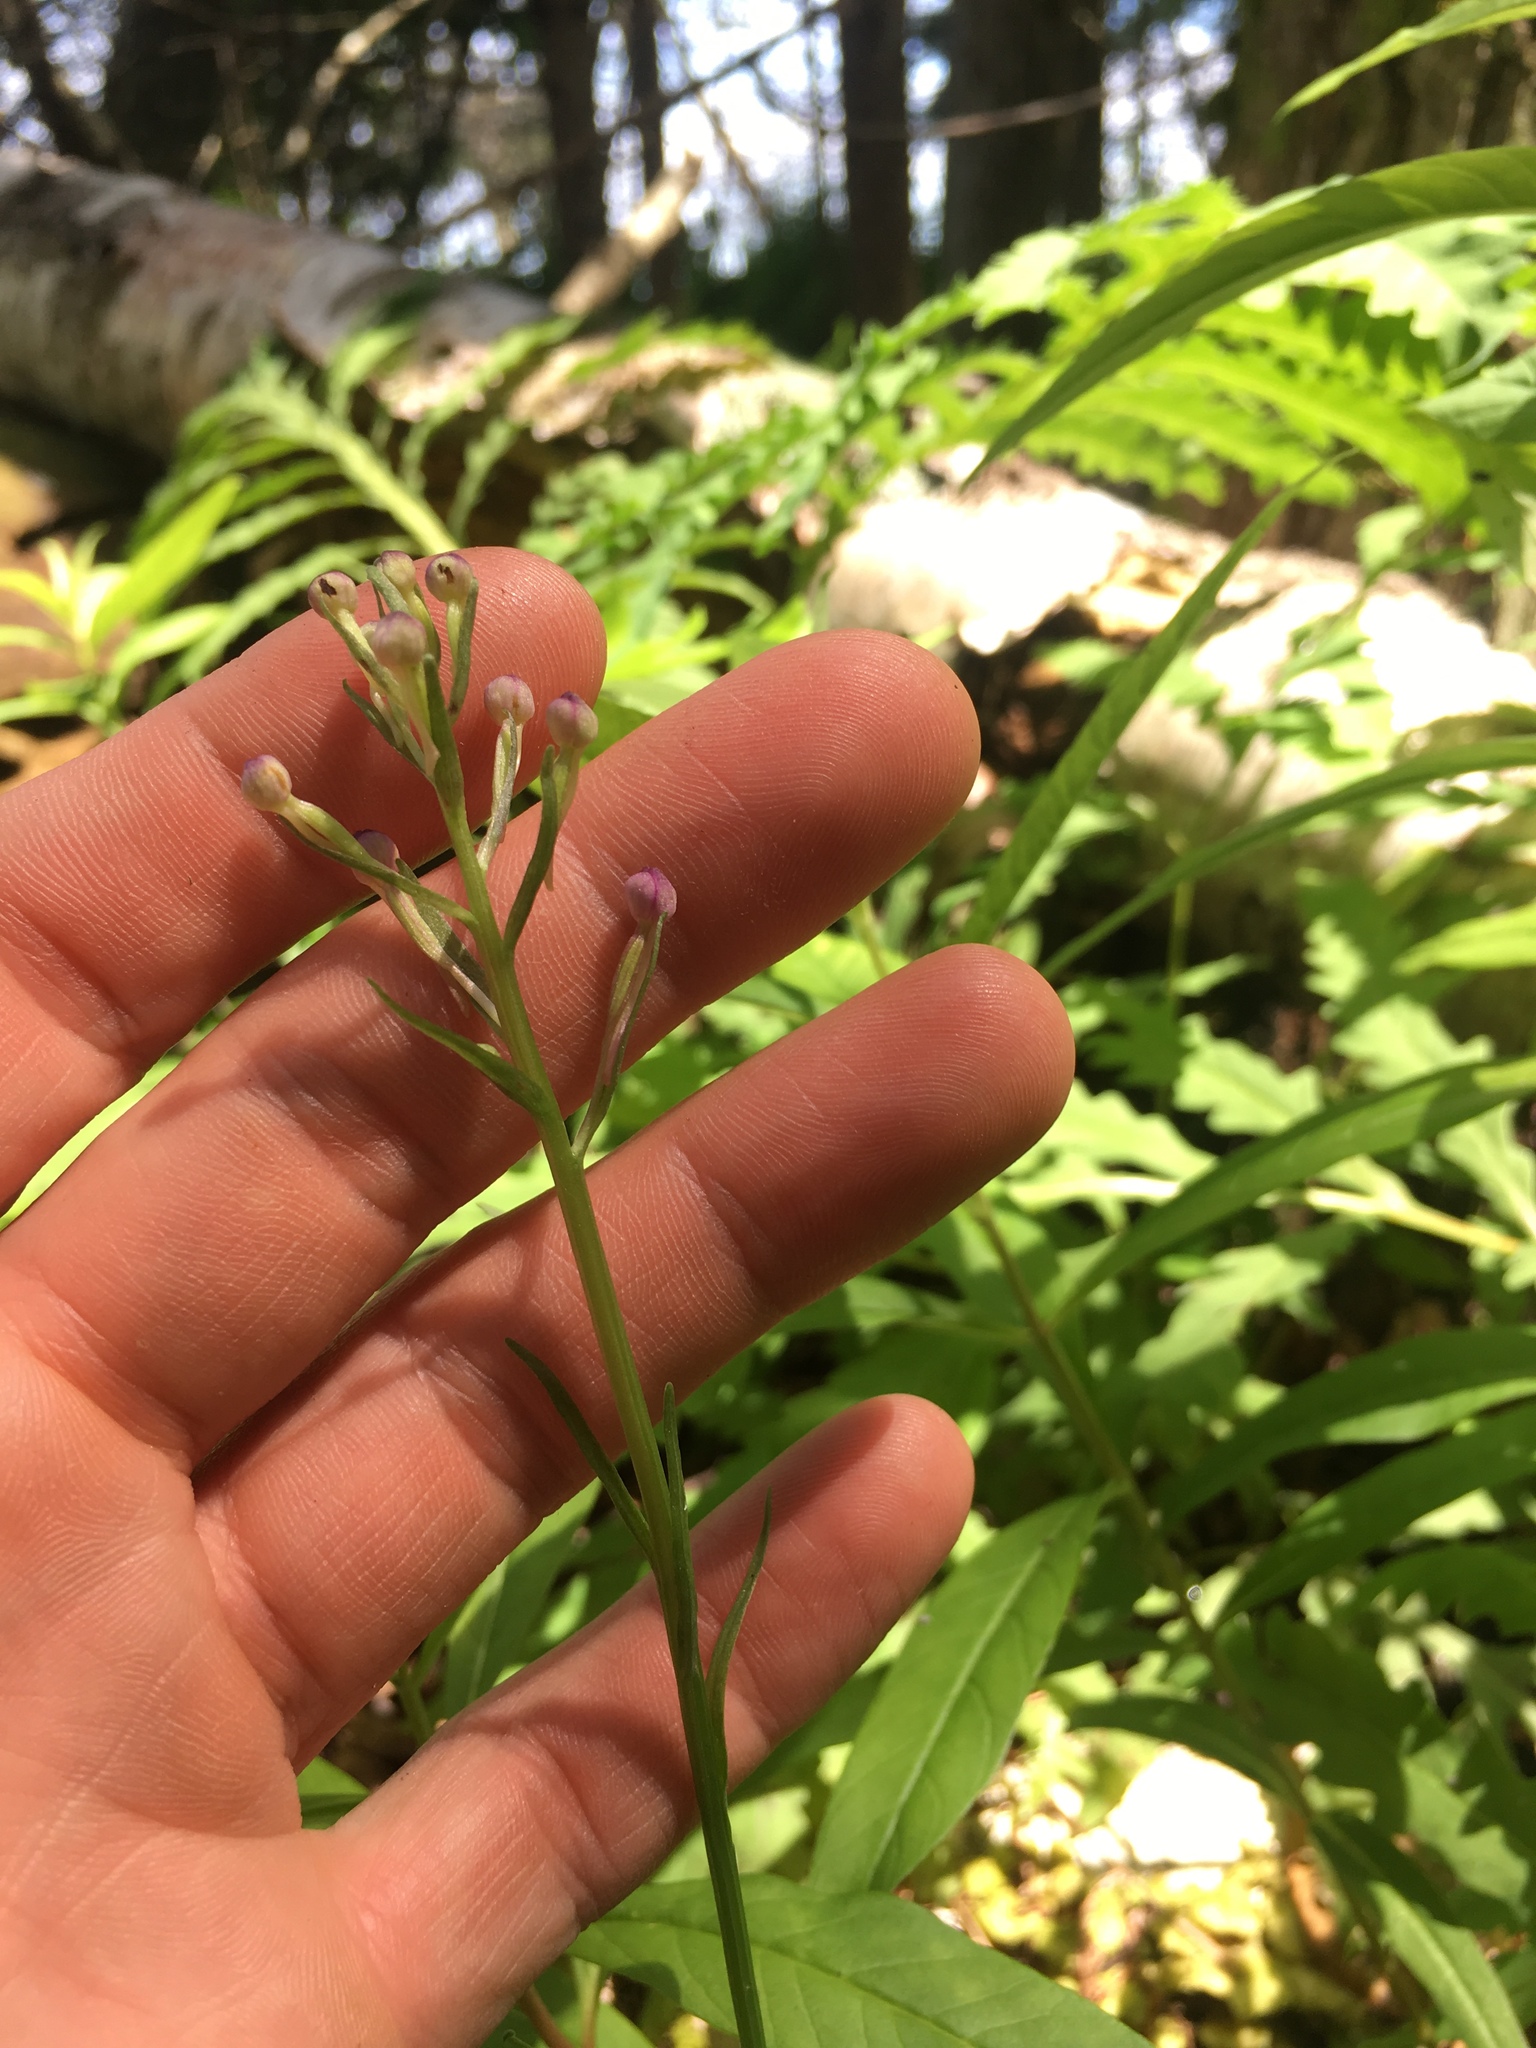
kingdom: Plantae
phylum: Tracheophyta
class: Liliopsida
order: Asparagales
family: Orchidaceae
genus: Platanthera
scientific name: Platanthera psycodes
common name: Lesser purple fringed orchid
